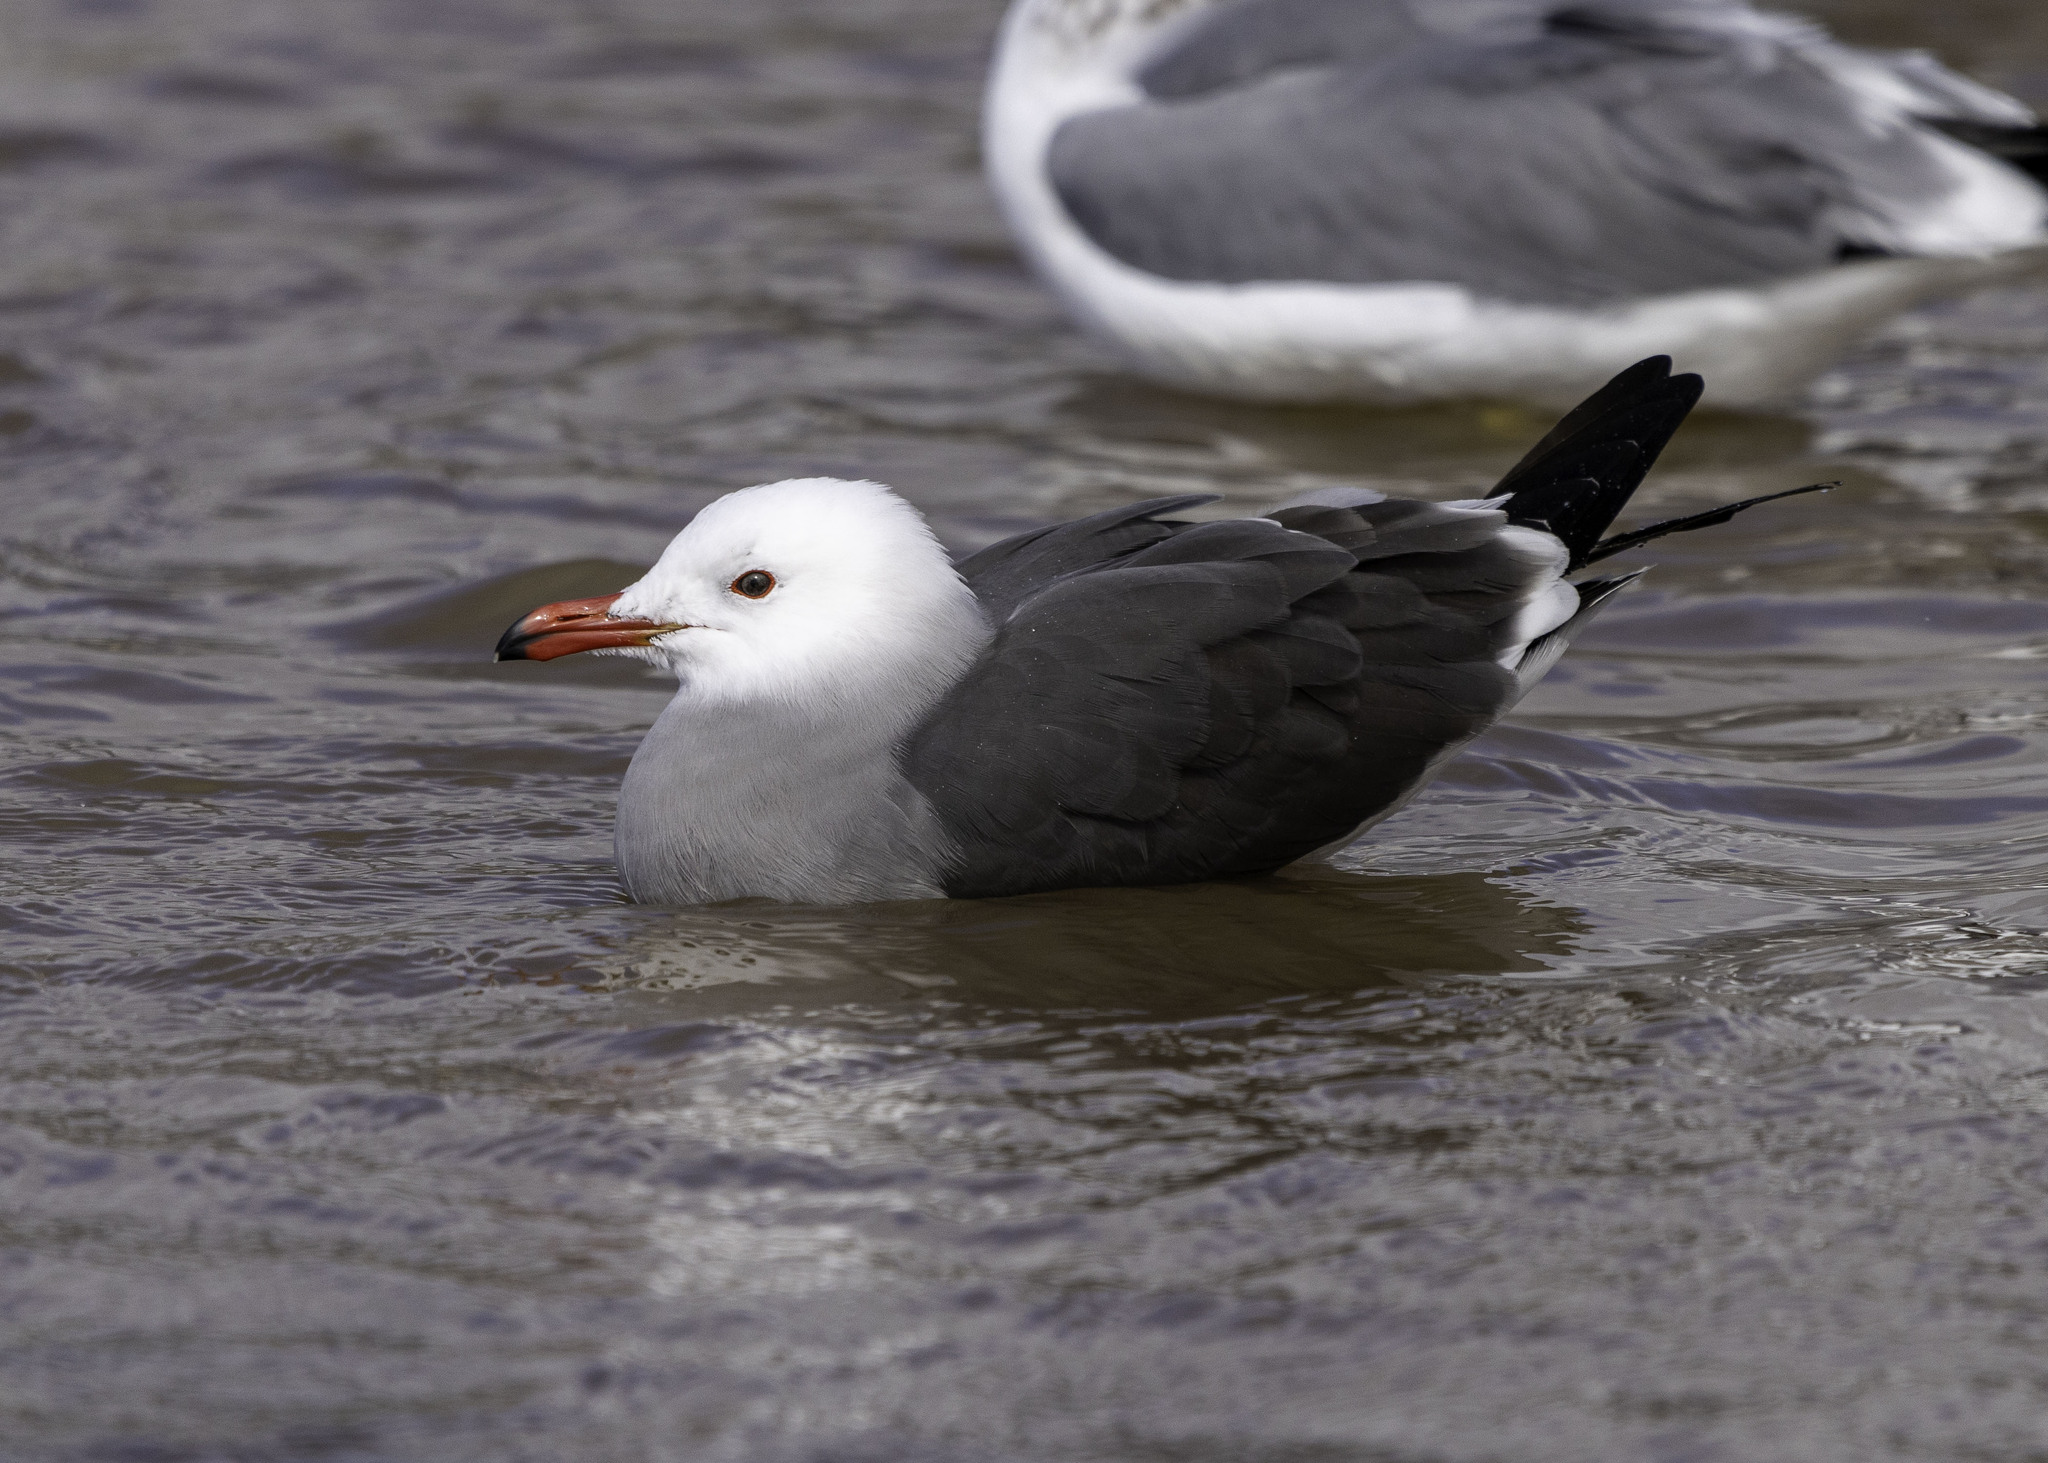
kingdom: Animalia
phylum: Chordata
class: Aves
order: Charadriiformes
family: Laridae
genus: Larus
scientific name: Larus heermanni
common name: Heermann's gull
